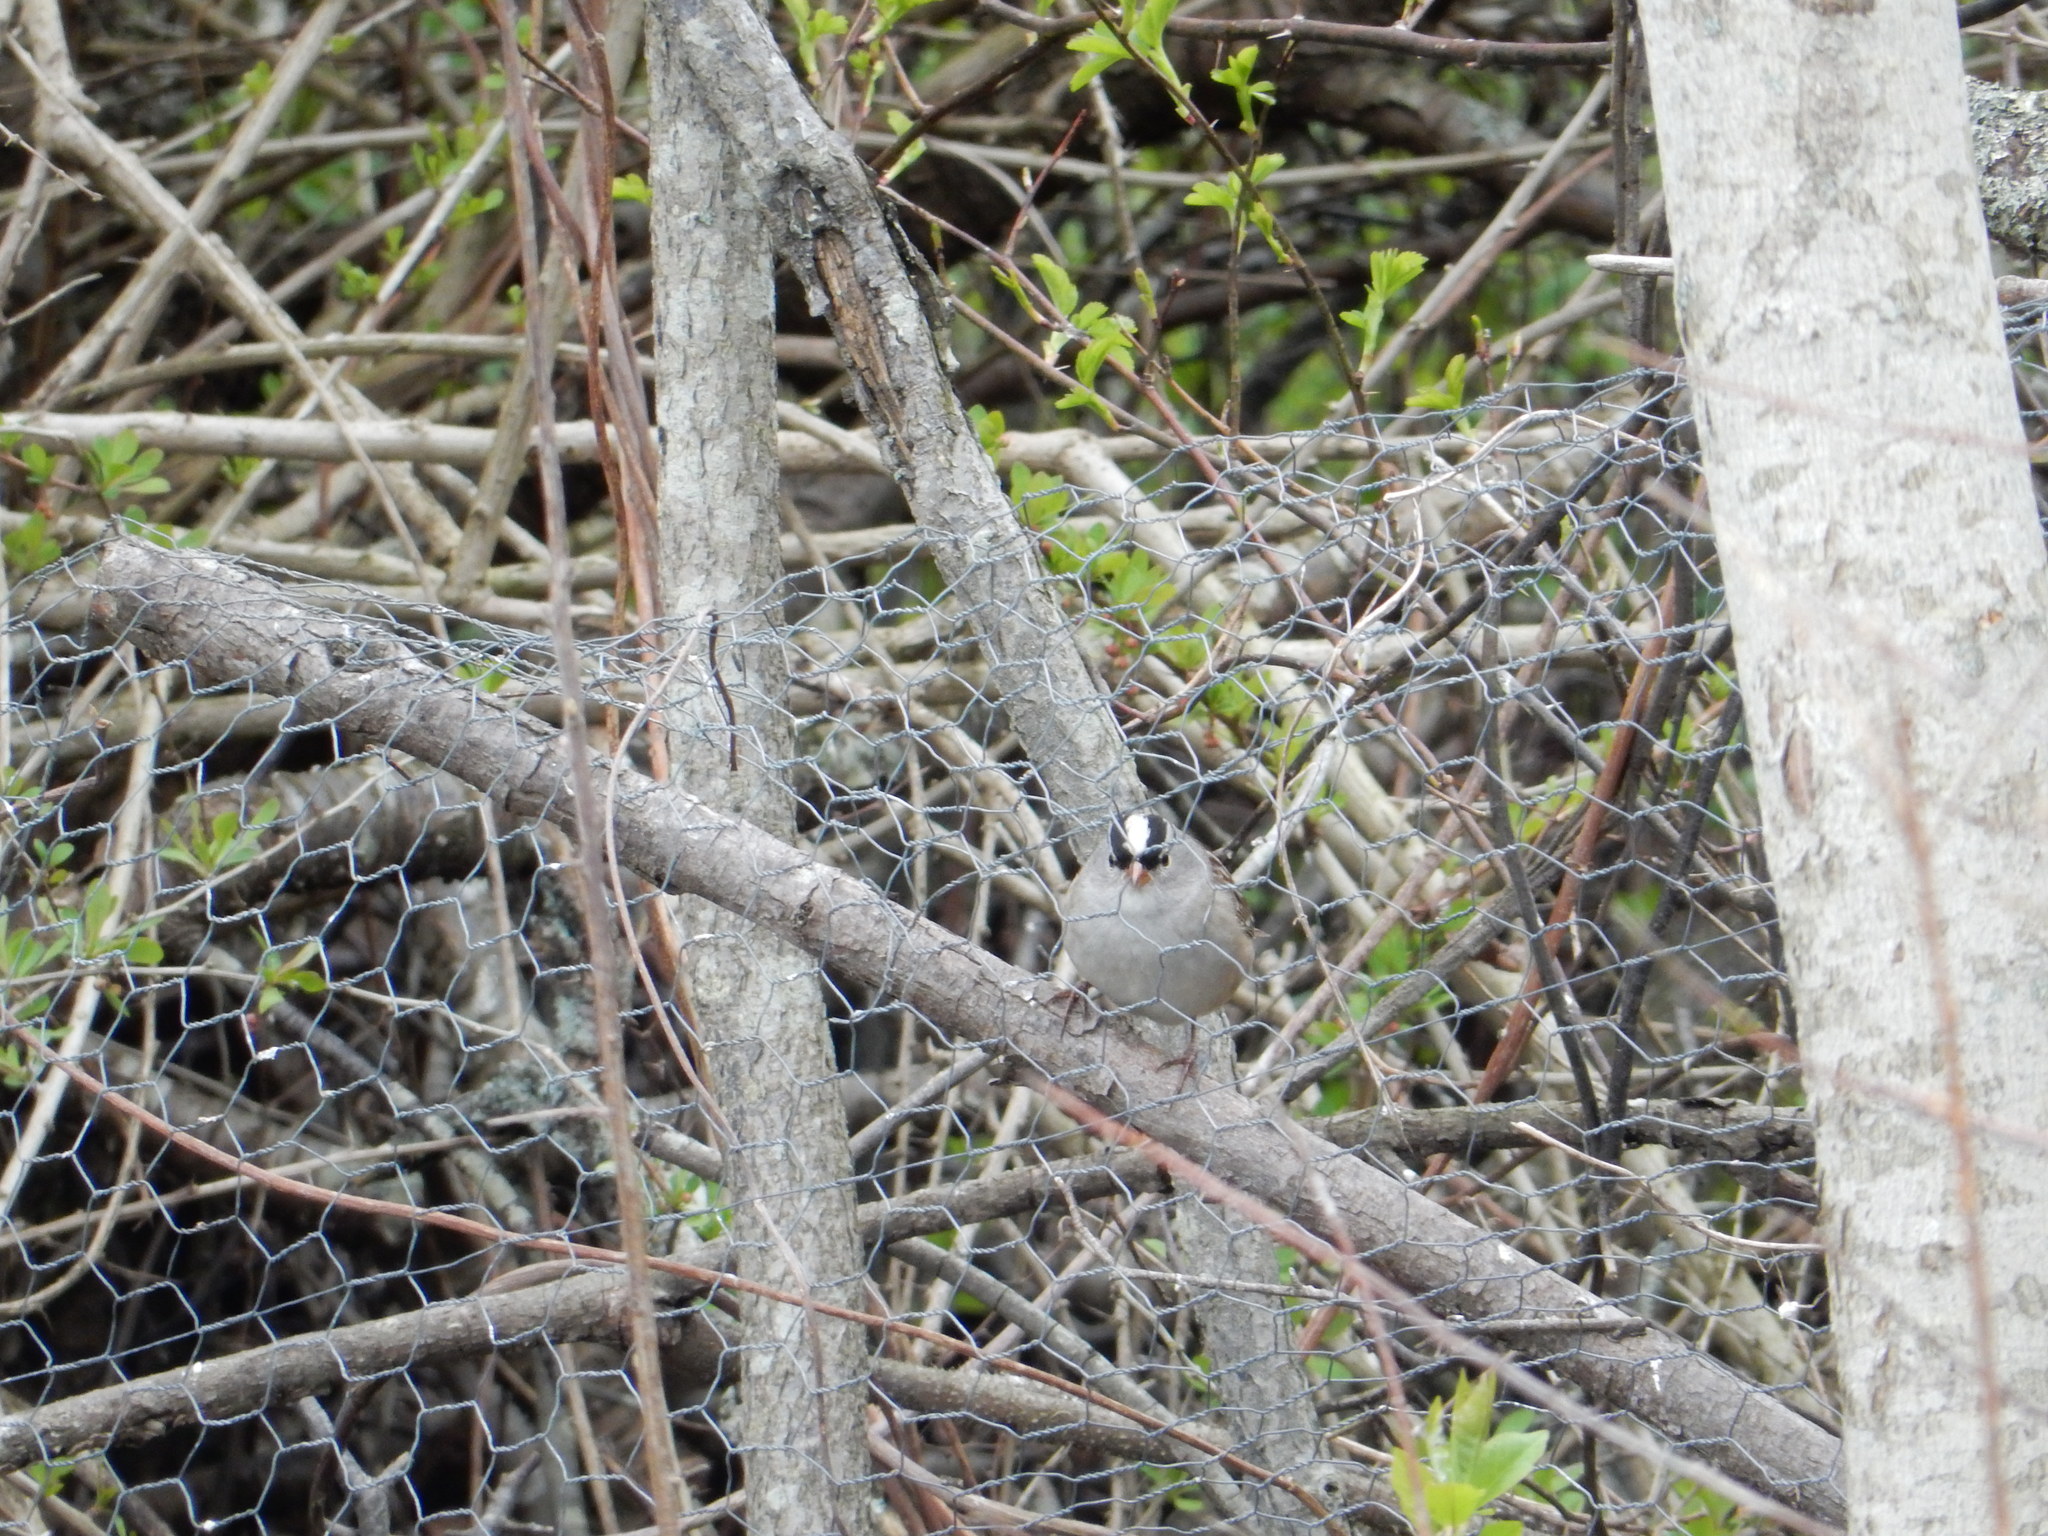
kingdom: Animalia
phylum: Chordata
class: Aves
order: Passeriformes
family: Passerellidae
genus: Zonotrichia
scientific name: Zonotrichia leucophrys
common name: White-crowned sparrow
